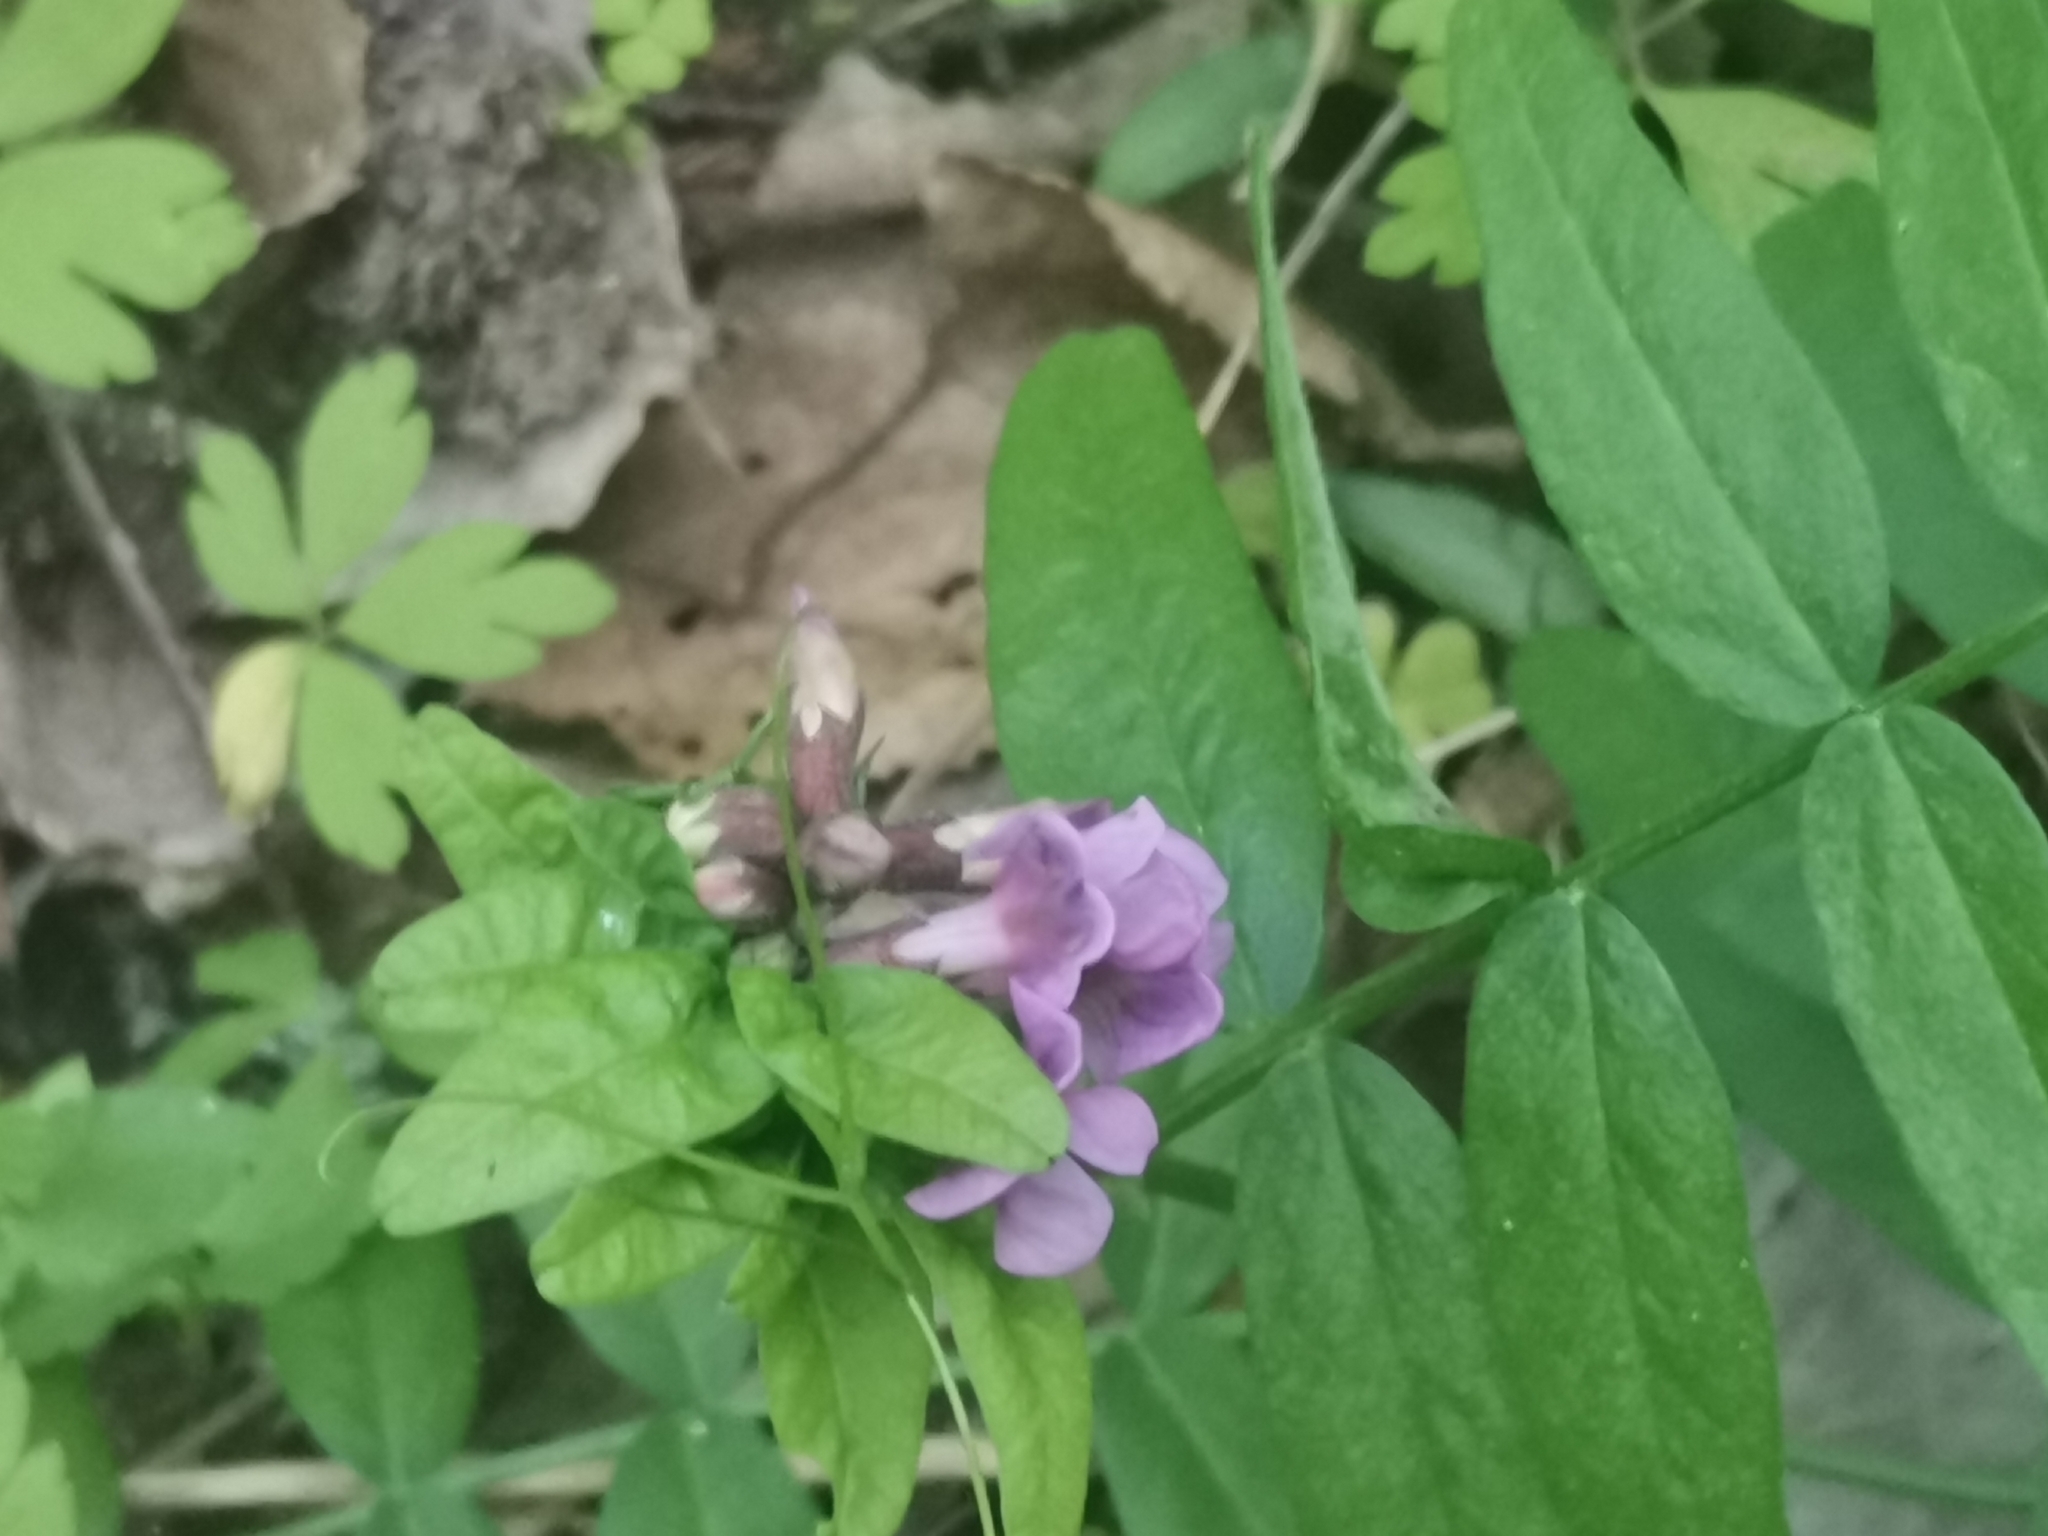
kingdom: Plantae
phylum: Tracheophyta
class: Magnoliopsida
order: Fabales
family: Fabaceae
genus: Vicia
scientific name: Vicia sepium
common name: Bush vetch
